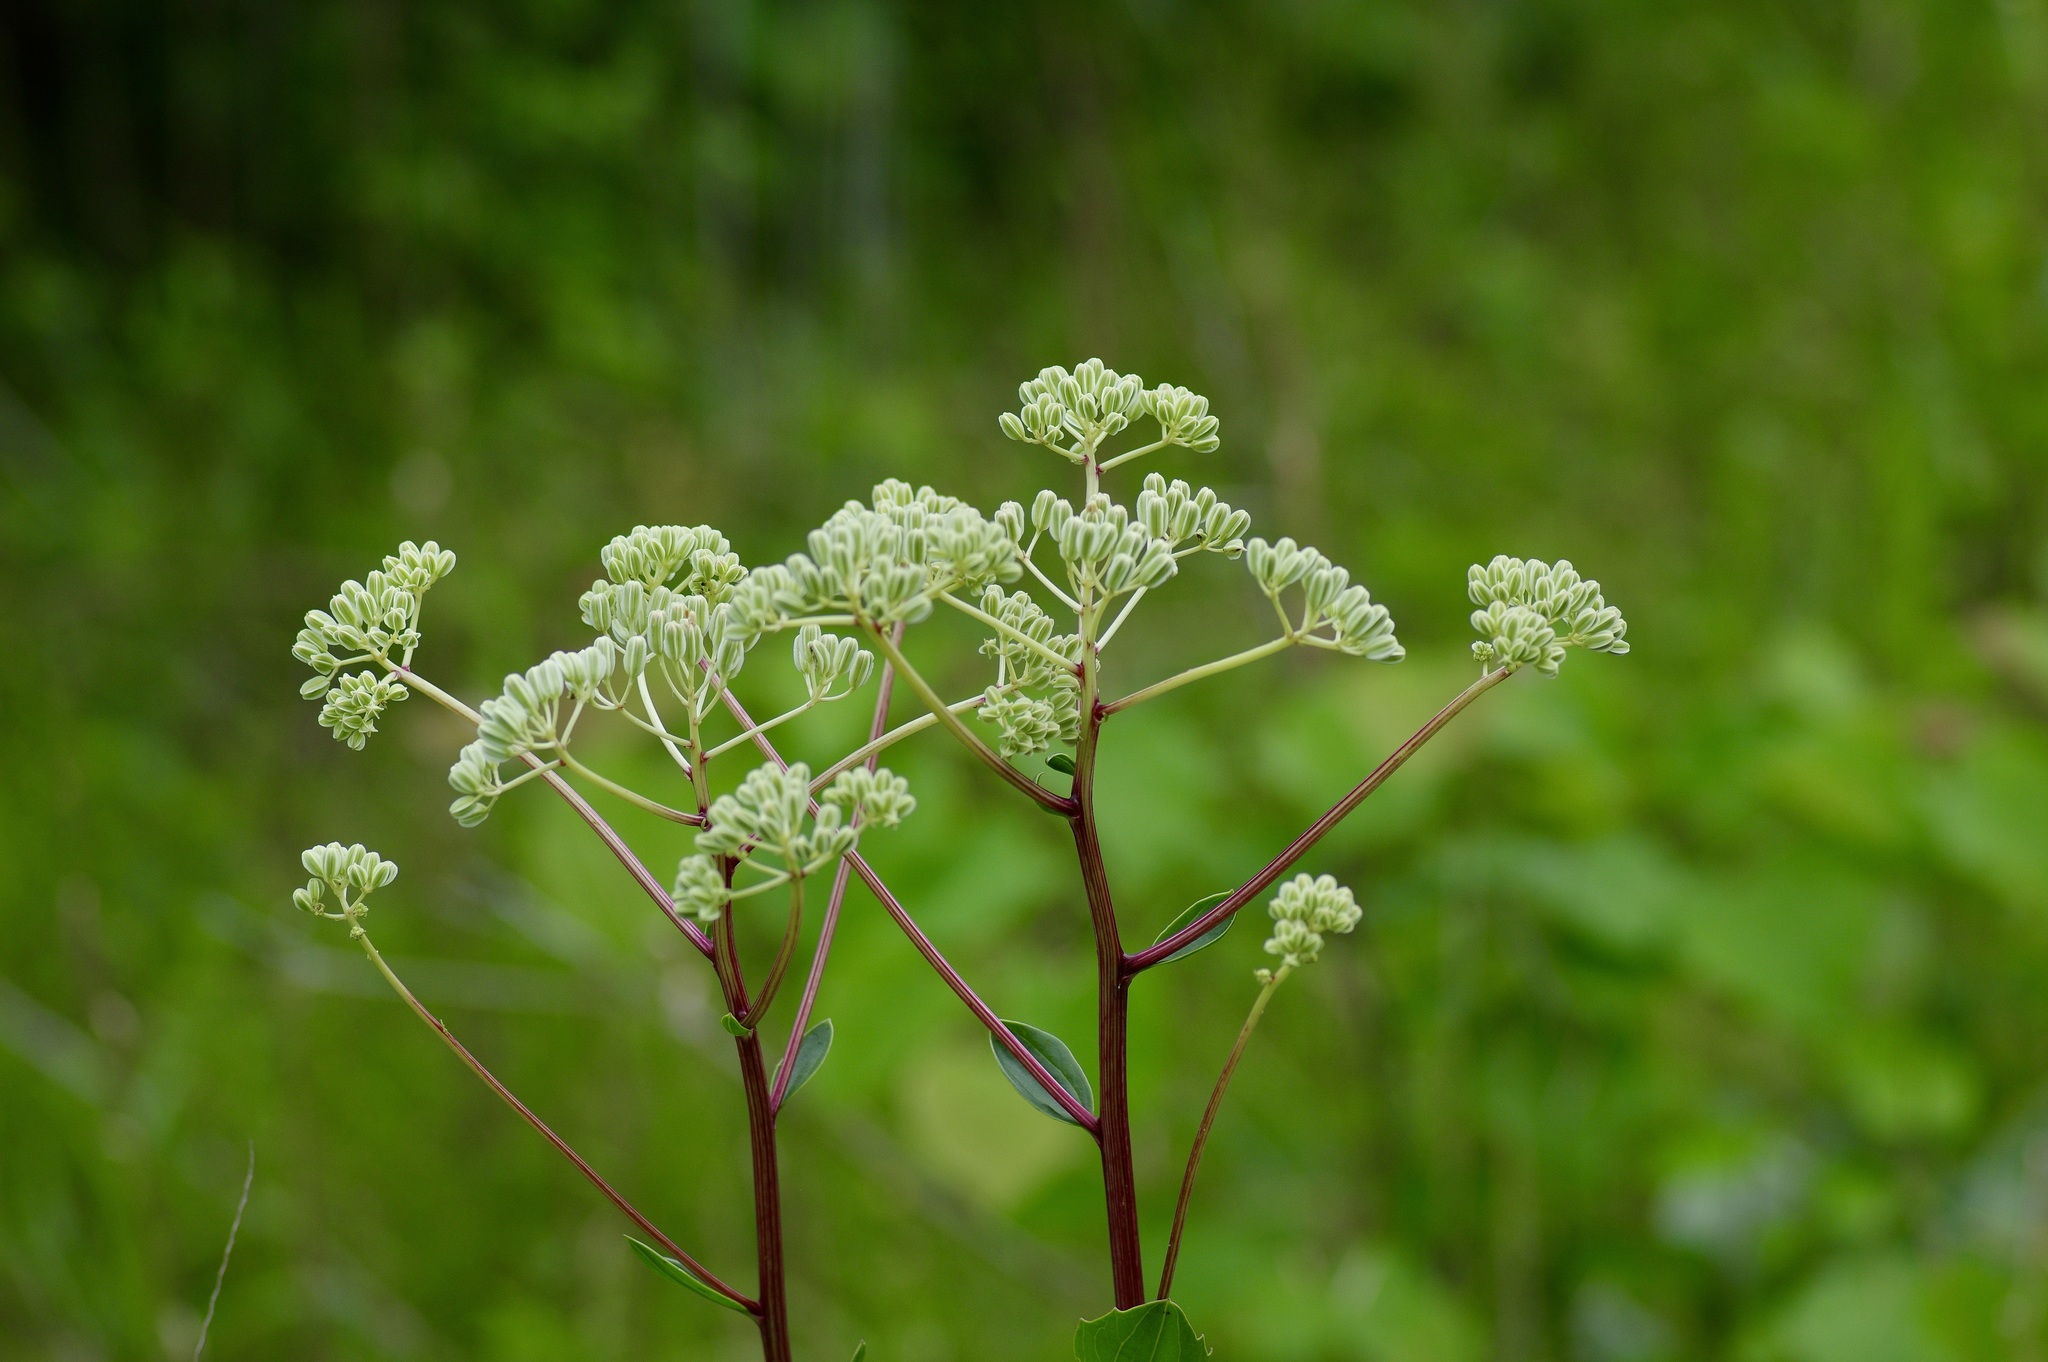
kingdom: Plantae
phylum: Tracheophyta
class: Magnoliopsida
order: Asterales
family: Asteraceae
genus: Arnoglossum
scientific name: Arnoglossum plantagineum
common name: Groove-stemmed indian-plantain
